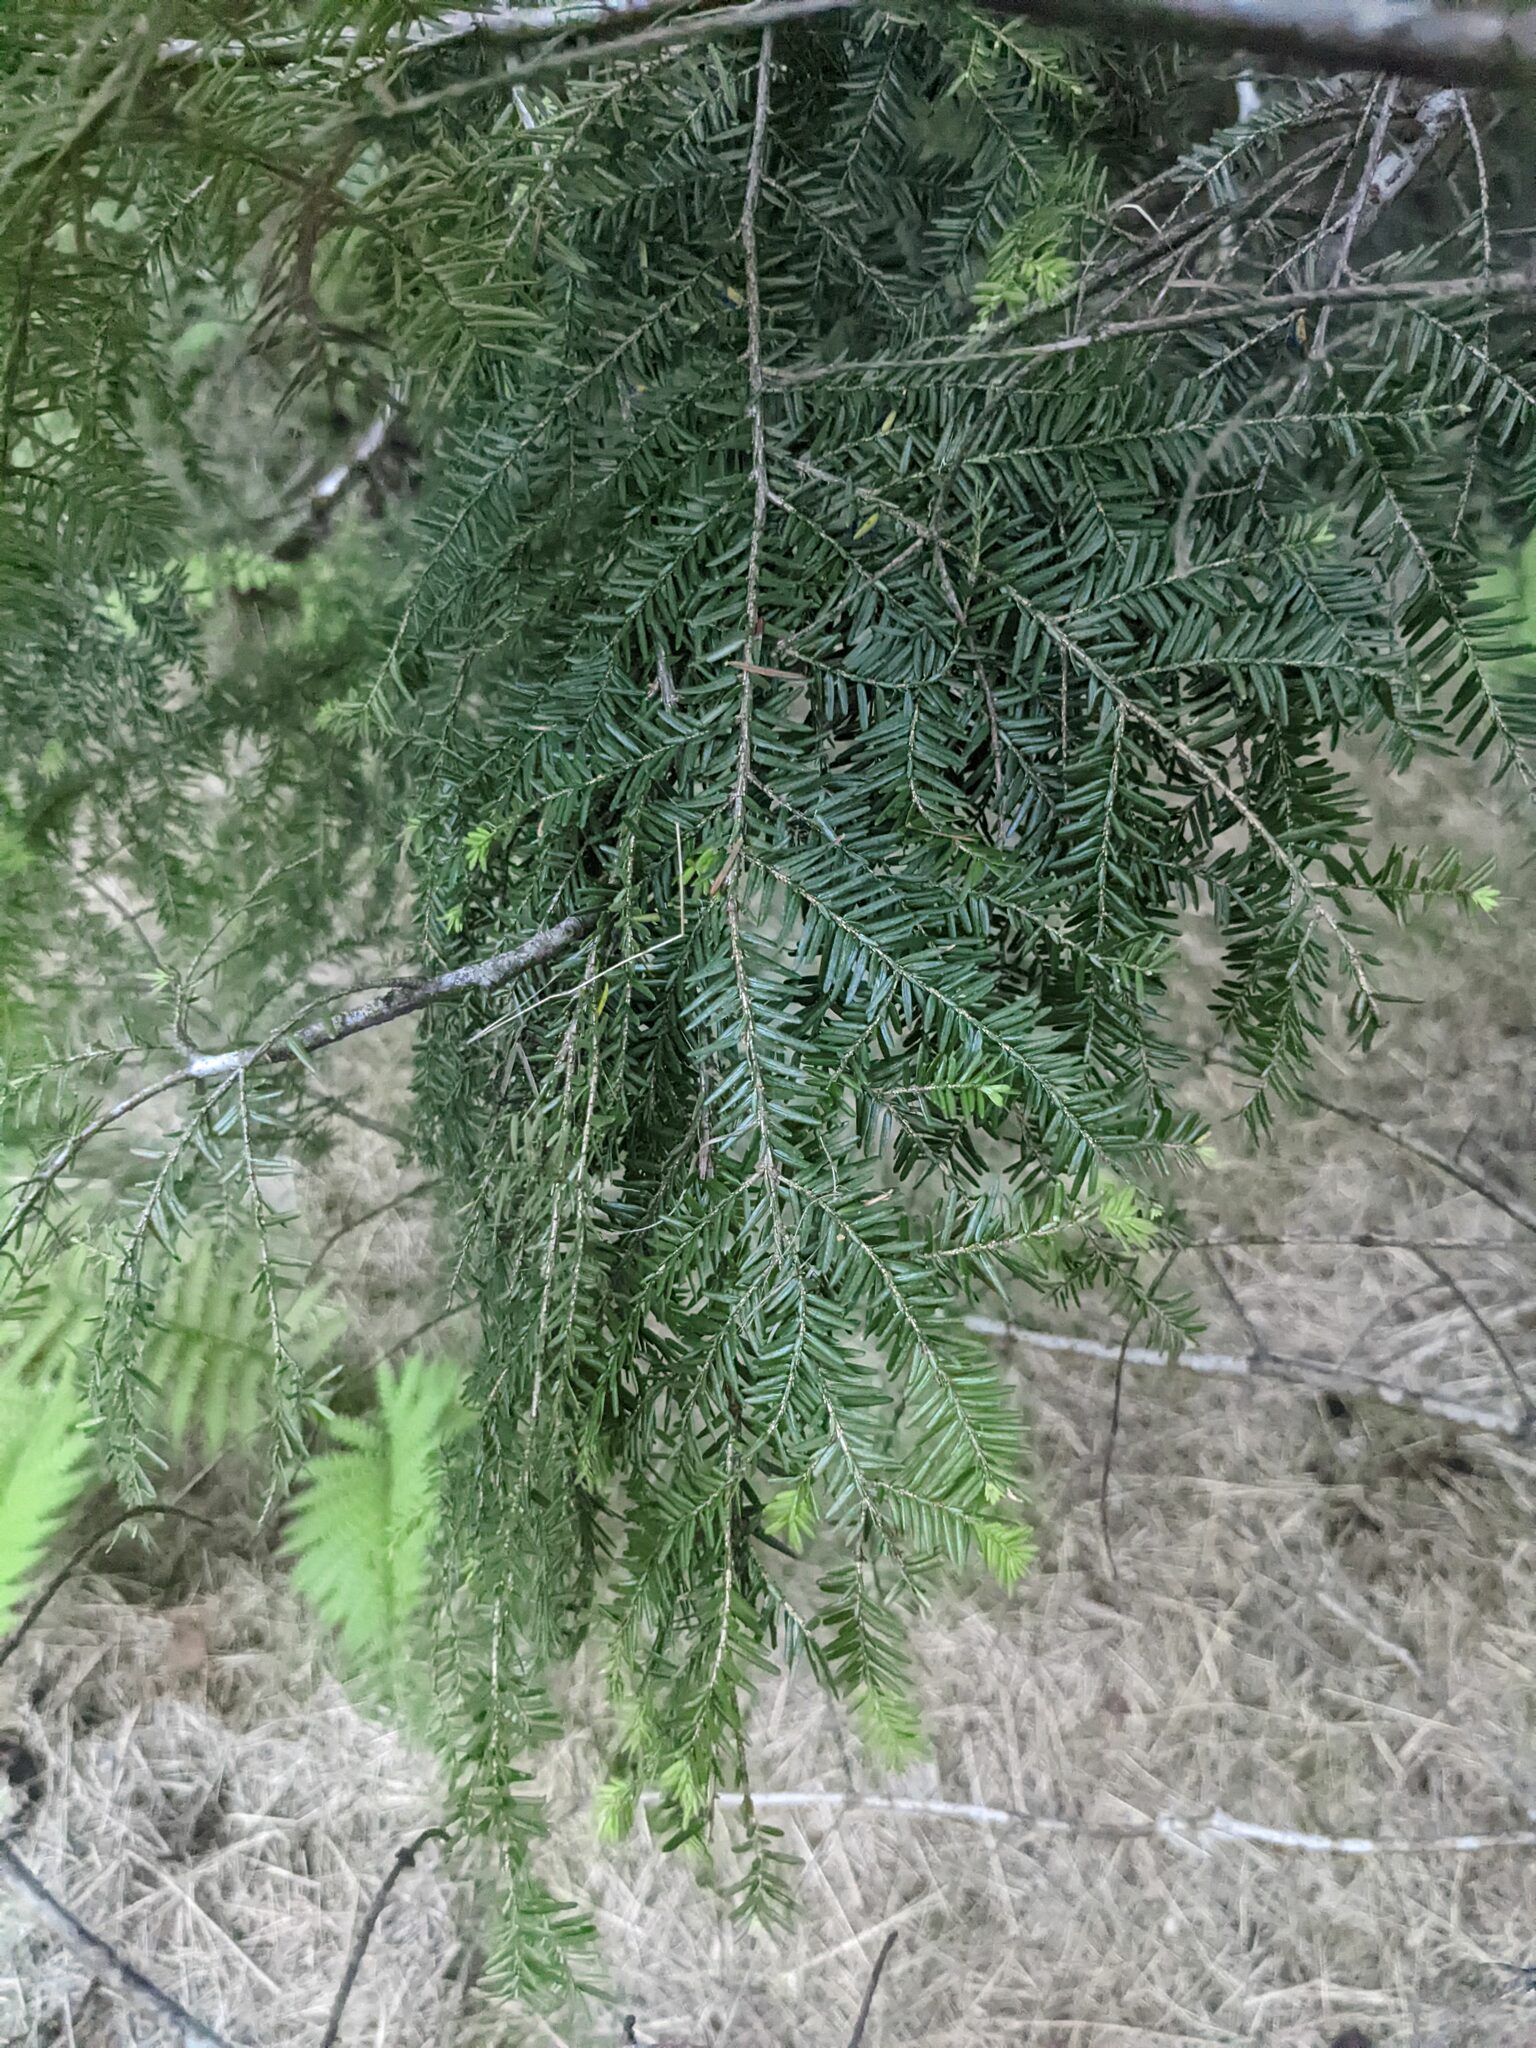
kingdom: Plantae
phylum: Tracheophyta
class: Pinopsida
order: Pinales
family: Pinaceae
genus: Tsuga
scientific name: Tsuga canadensis
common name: Eastern hemlock
